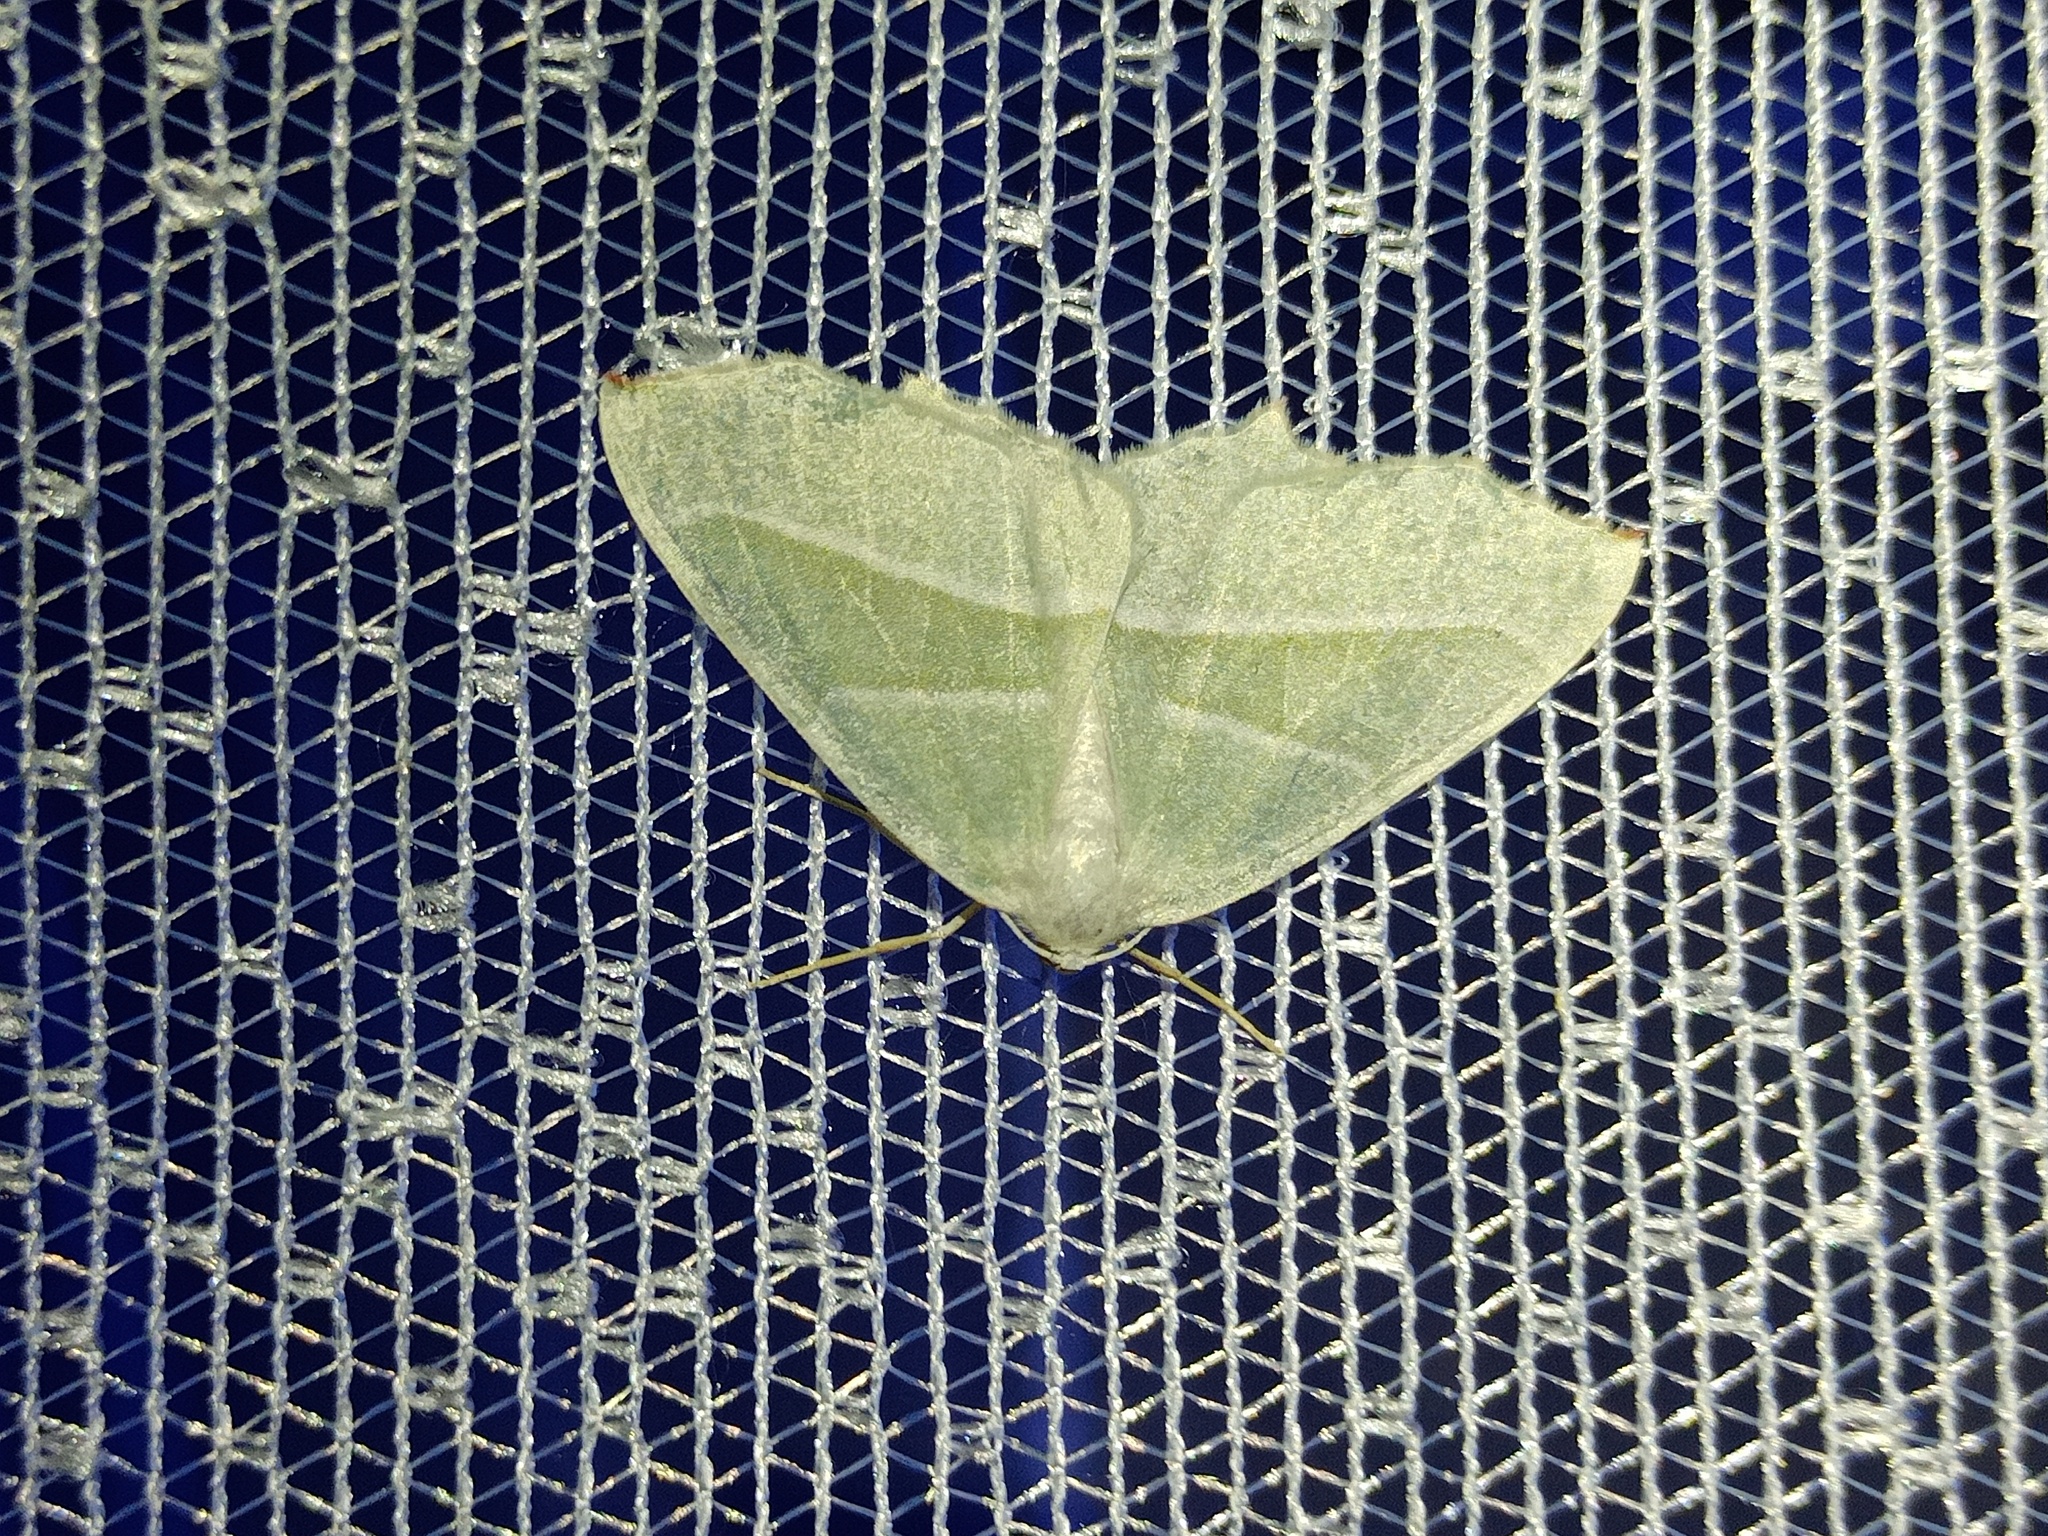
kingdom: Animalia
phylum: Arthropoda
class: Insecta
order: Lepidoptera
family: Geometridae
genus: Campaea
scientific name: Campaea margaritaria
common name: Light emerald
